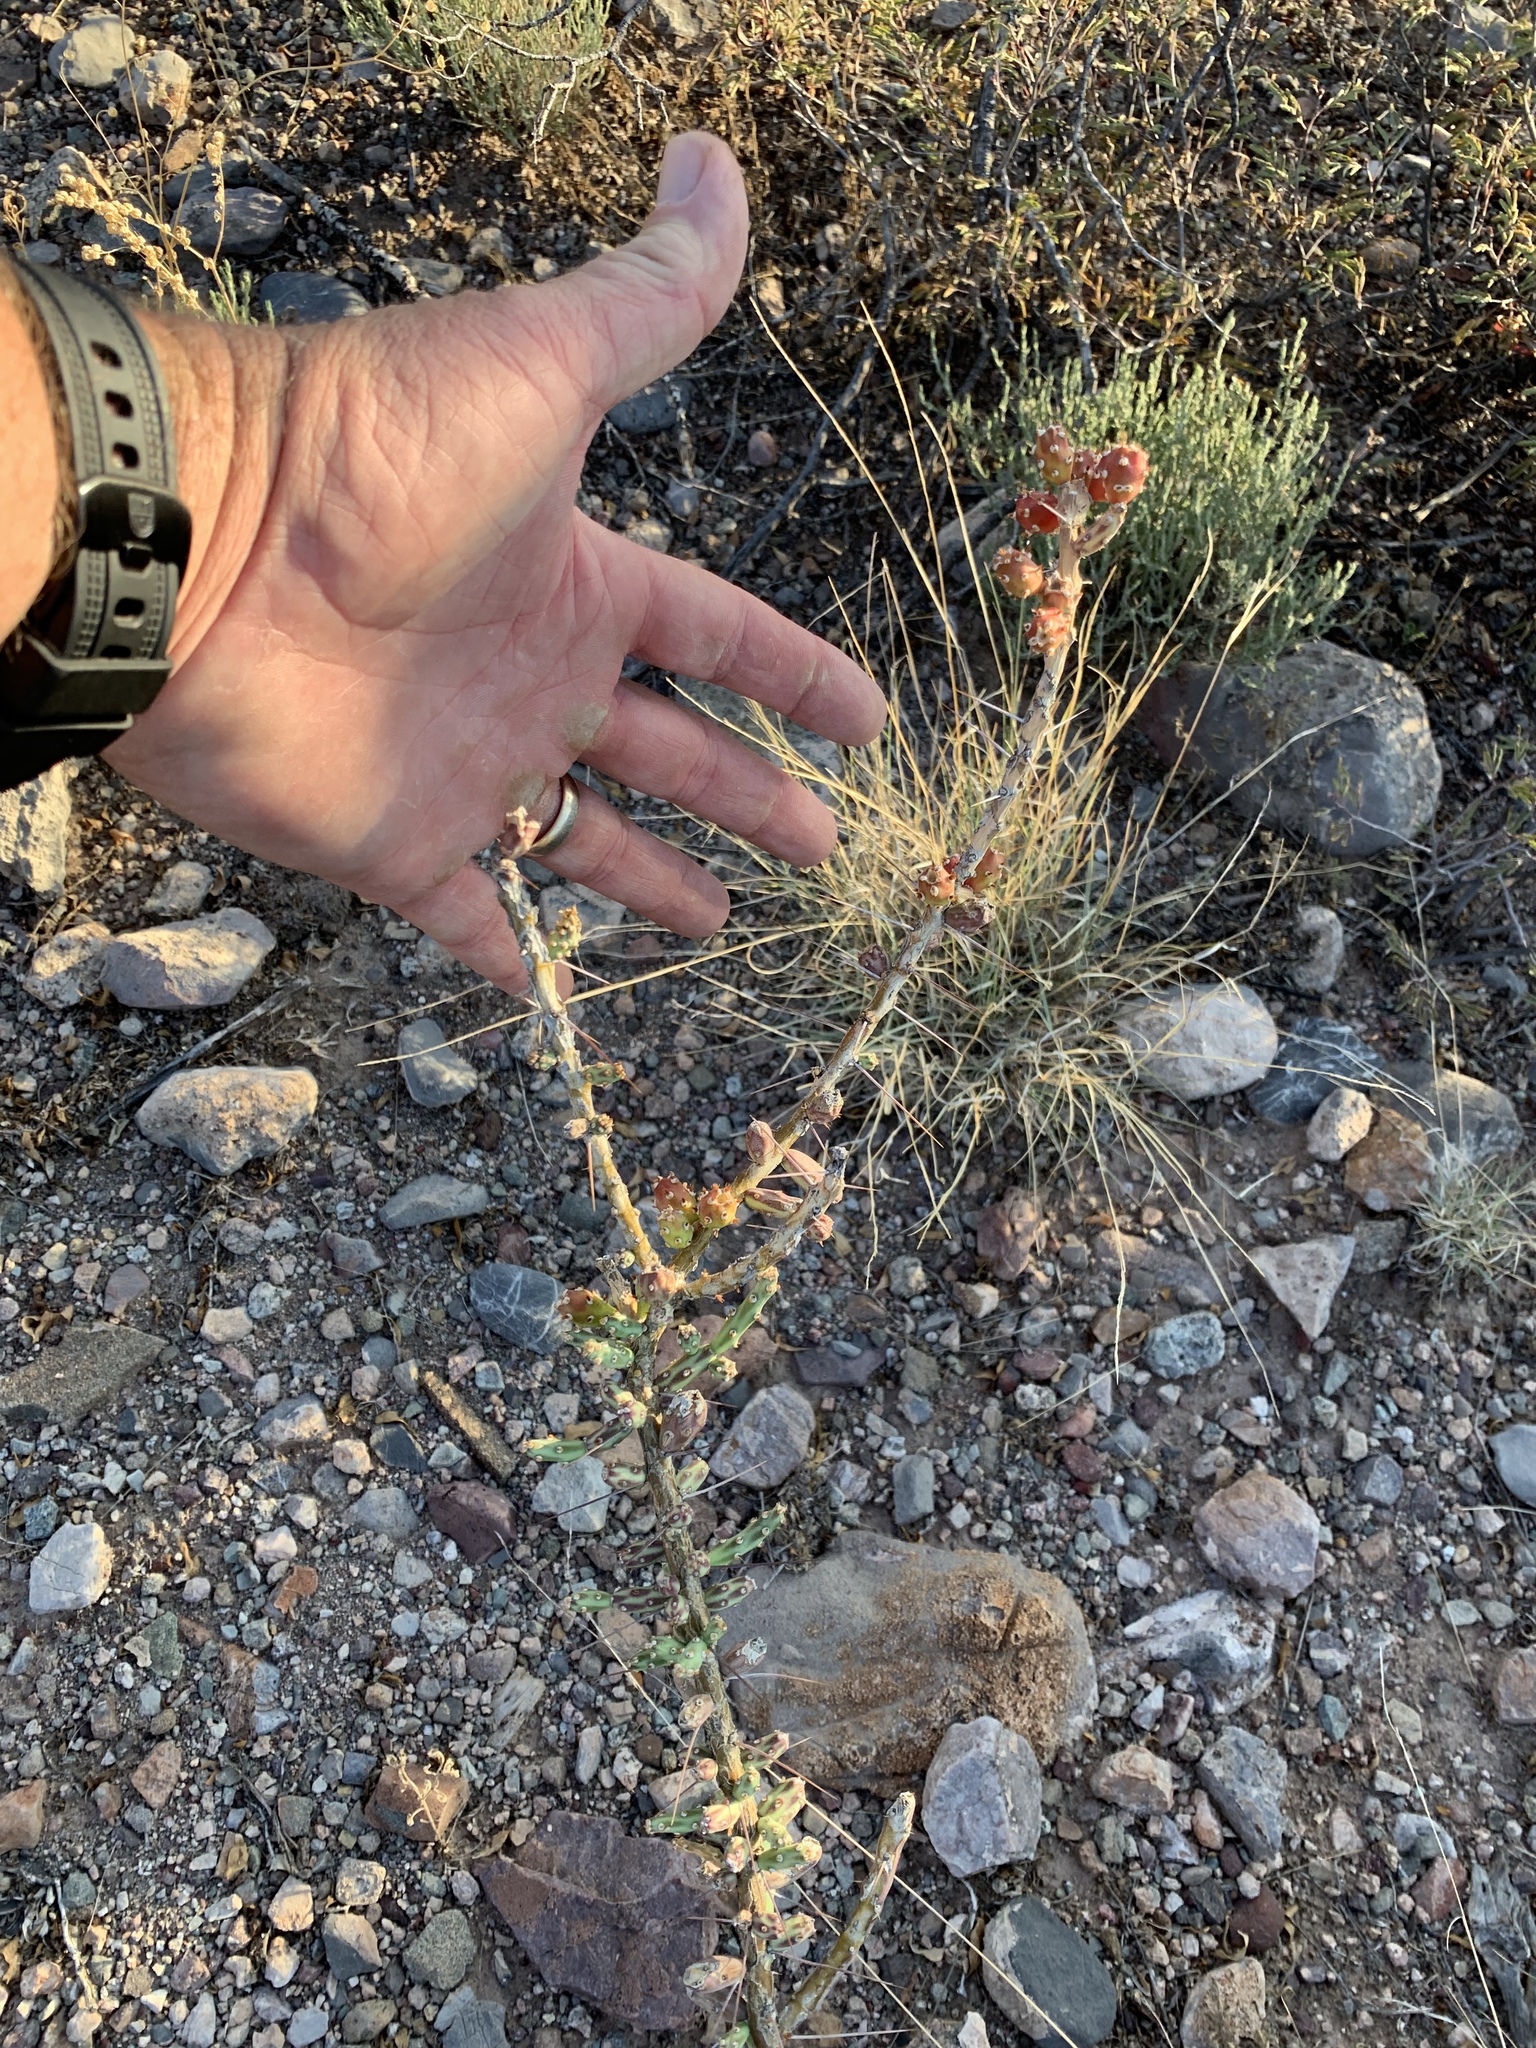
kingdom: Plantae
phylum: Tracheophyta
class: Magnoliopsida
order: Caryophyllales
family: Cactaceae
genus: Cylindropuntia
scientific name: Cylindropuntia leptocaulis
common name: Christmas cactus
